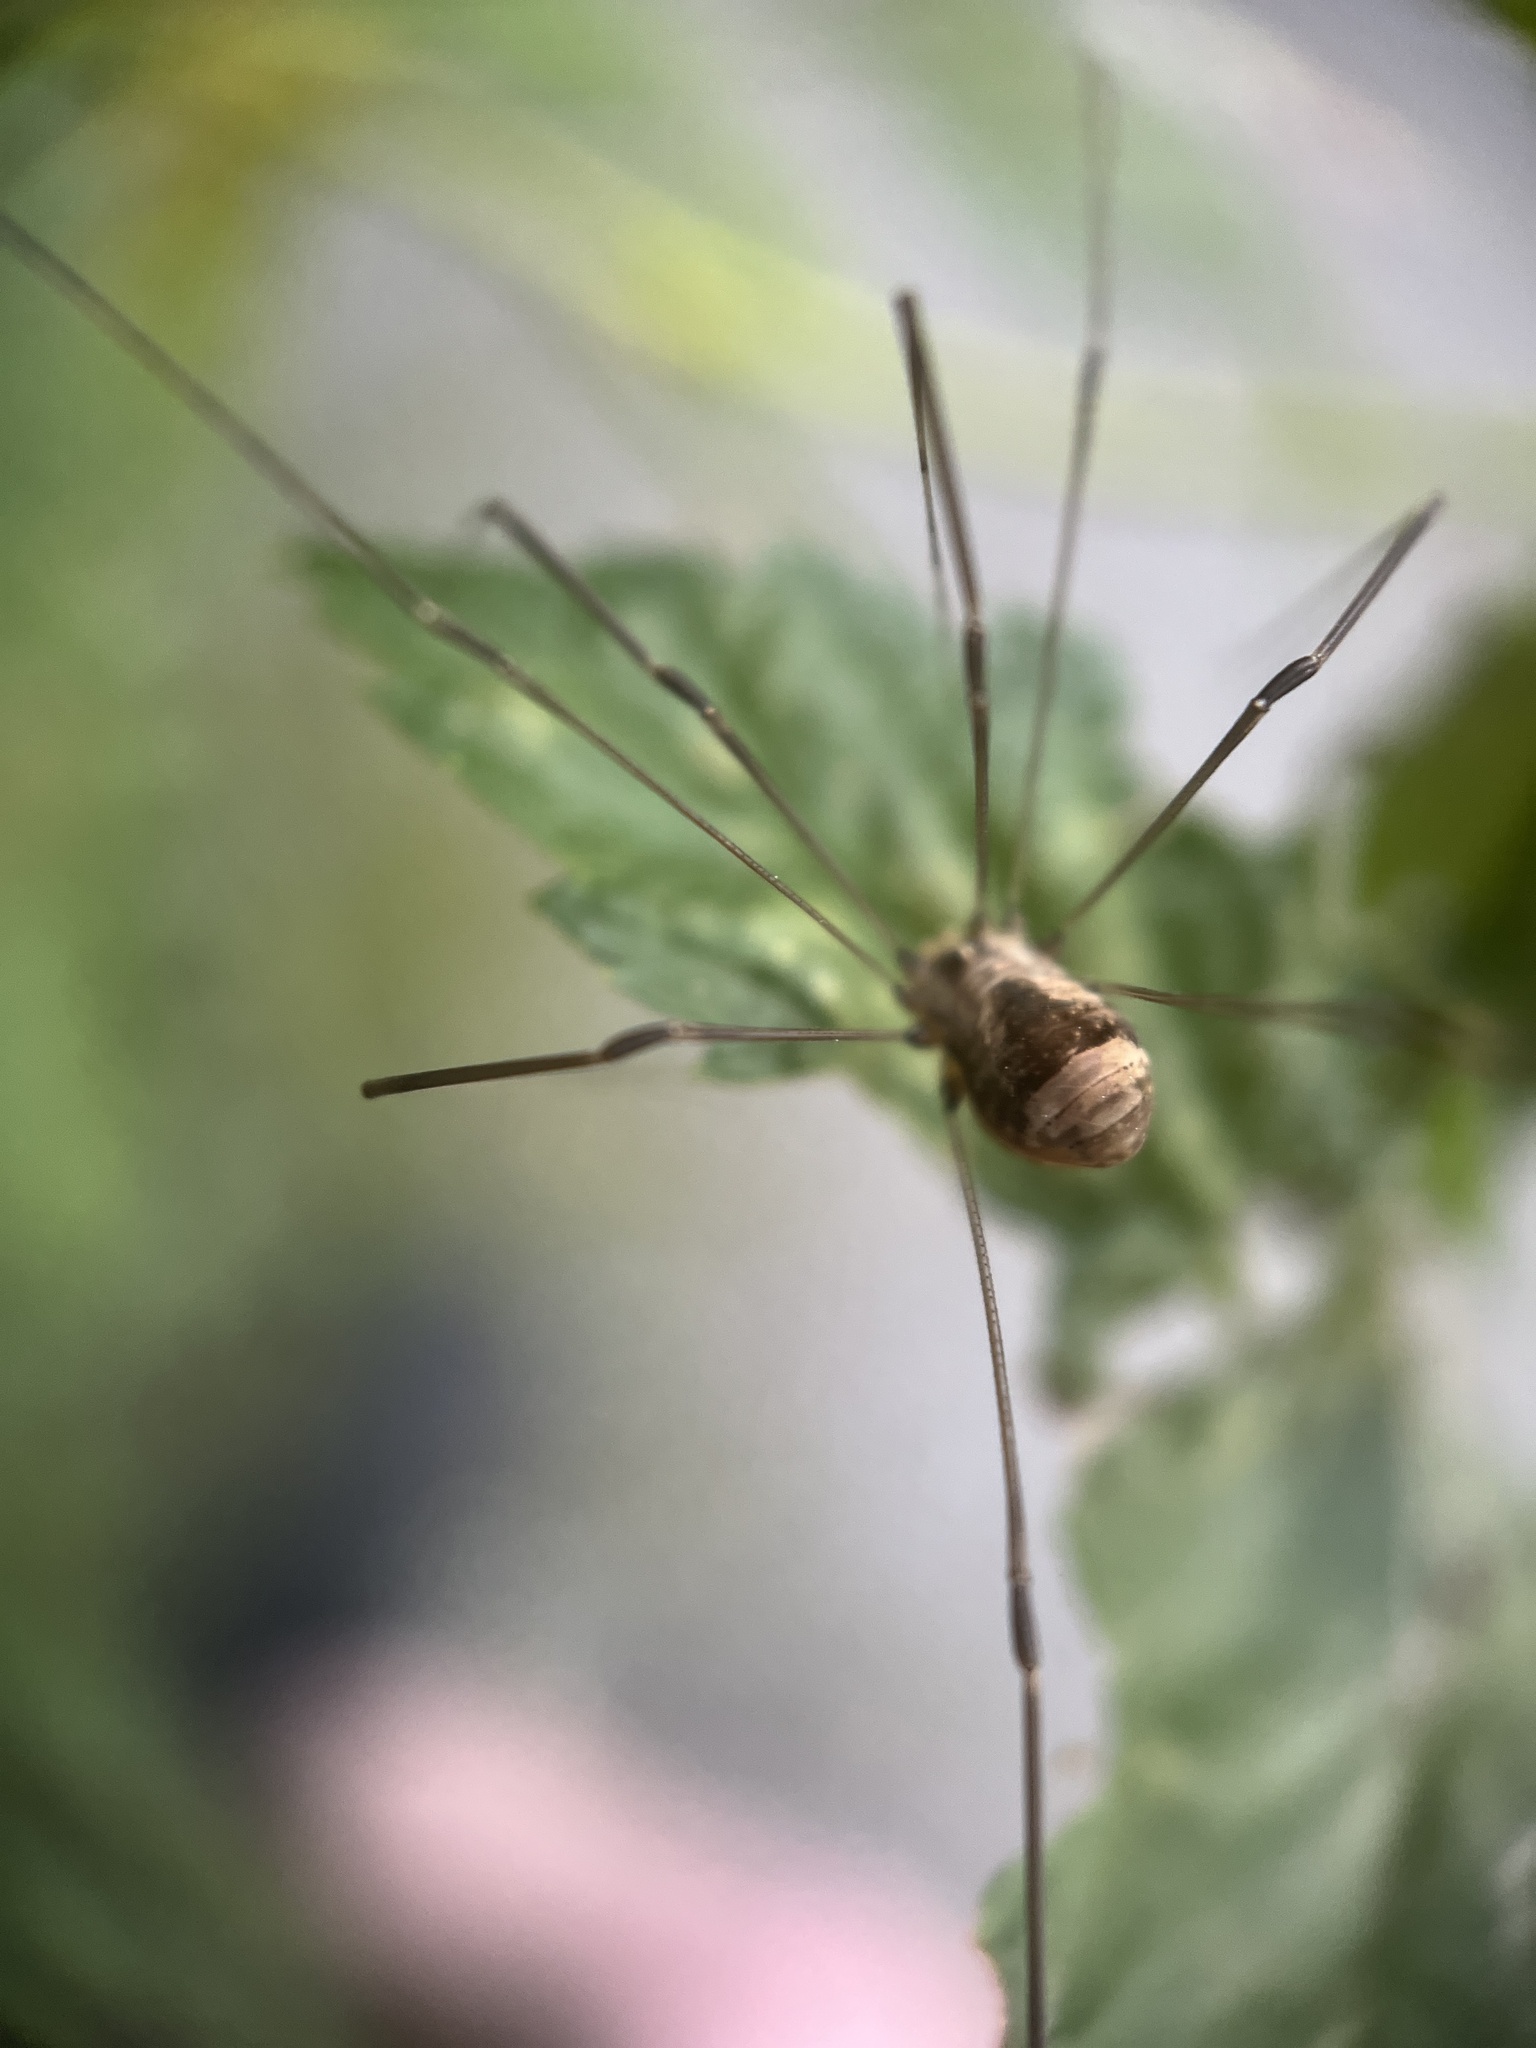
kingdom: Animalia
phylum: Arthropoda
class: Arachnida
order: Opiliones
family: Sclerosomatidae
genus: Leiobunum
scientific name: Leiobunum blackwalli
